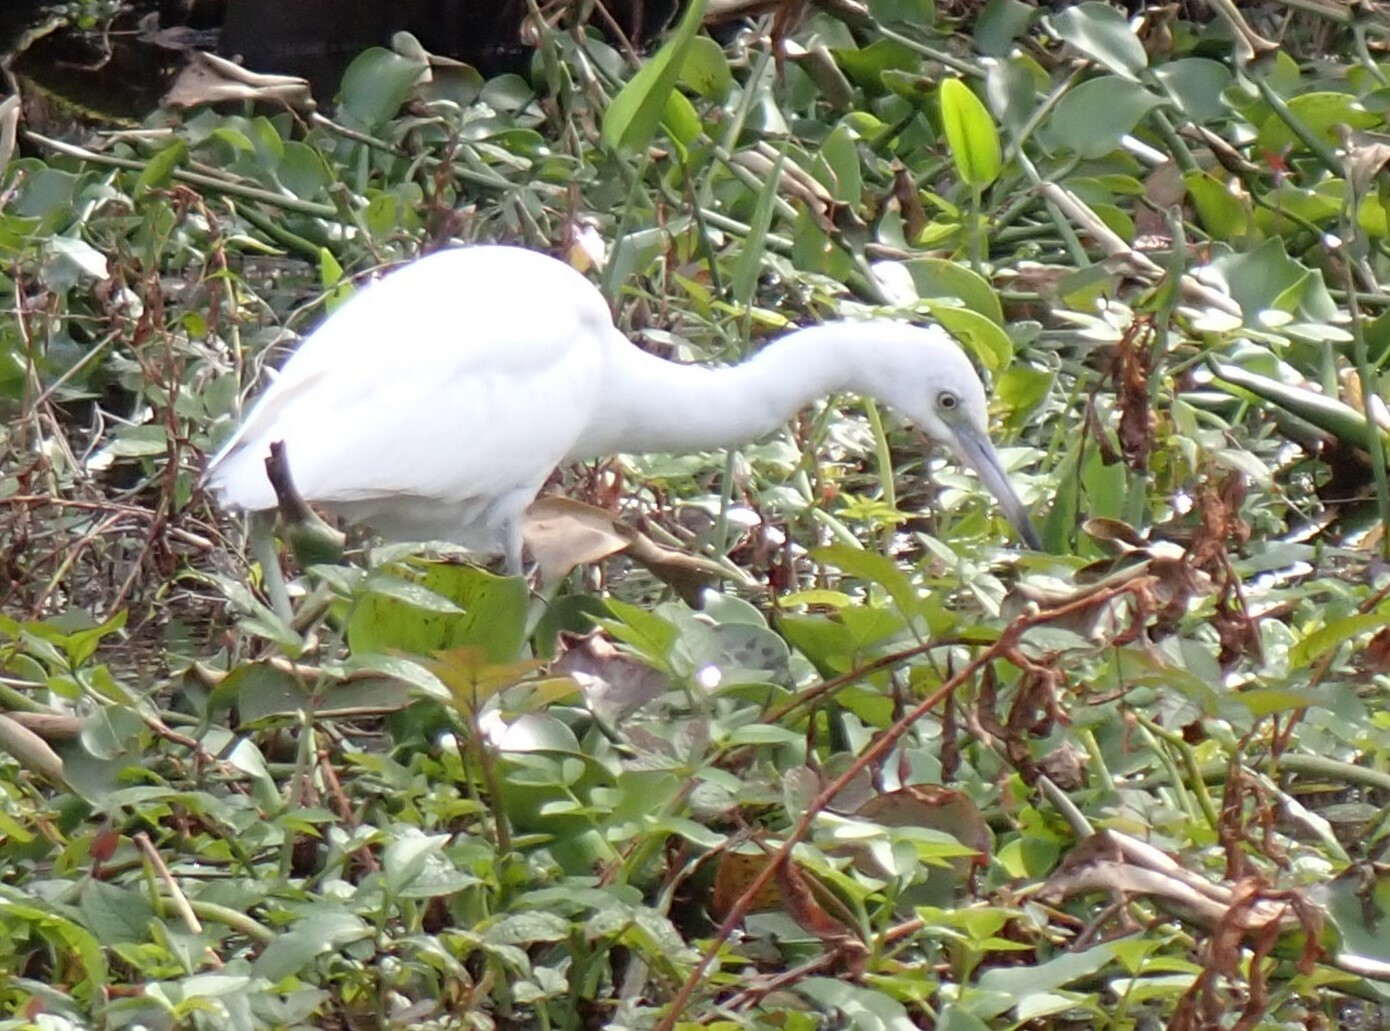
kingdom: Animalia
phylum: Chordata
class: Aves
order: Pelecaniformes
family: Ardeidae
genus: Egretta
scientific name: Egretta caerulea
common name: Little blue heron
